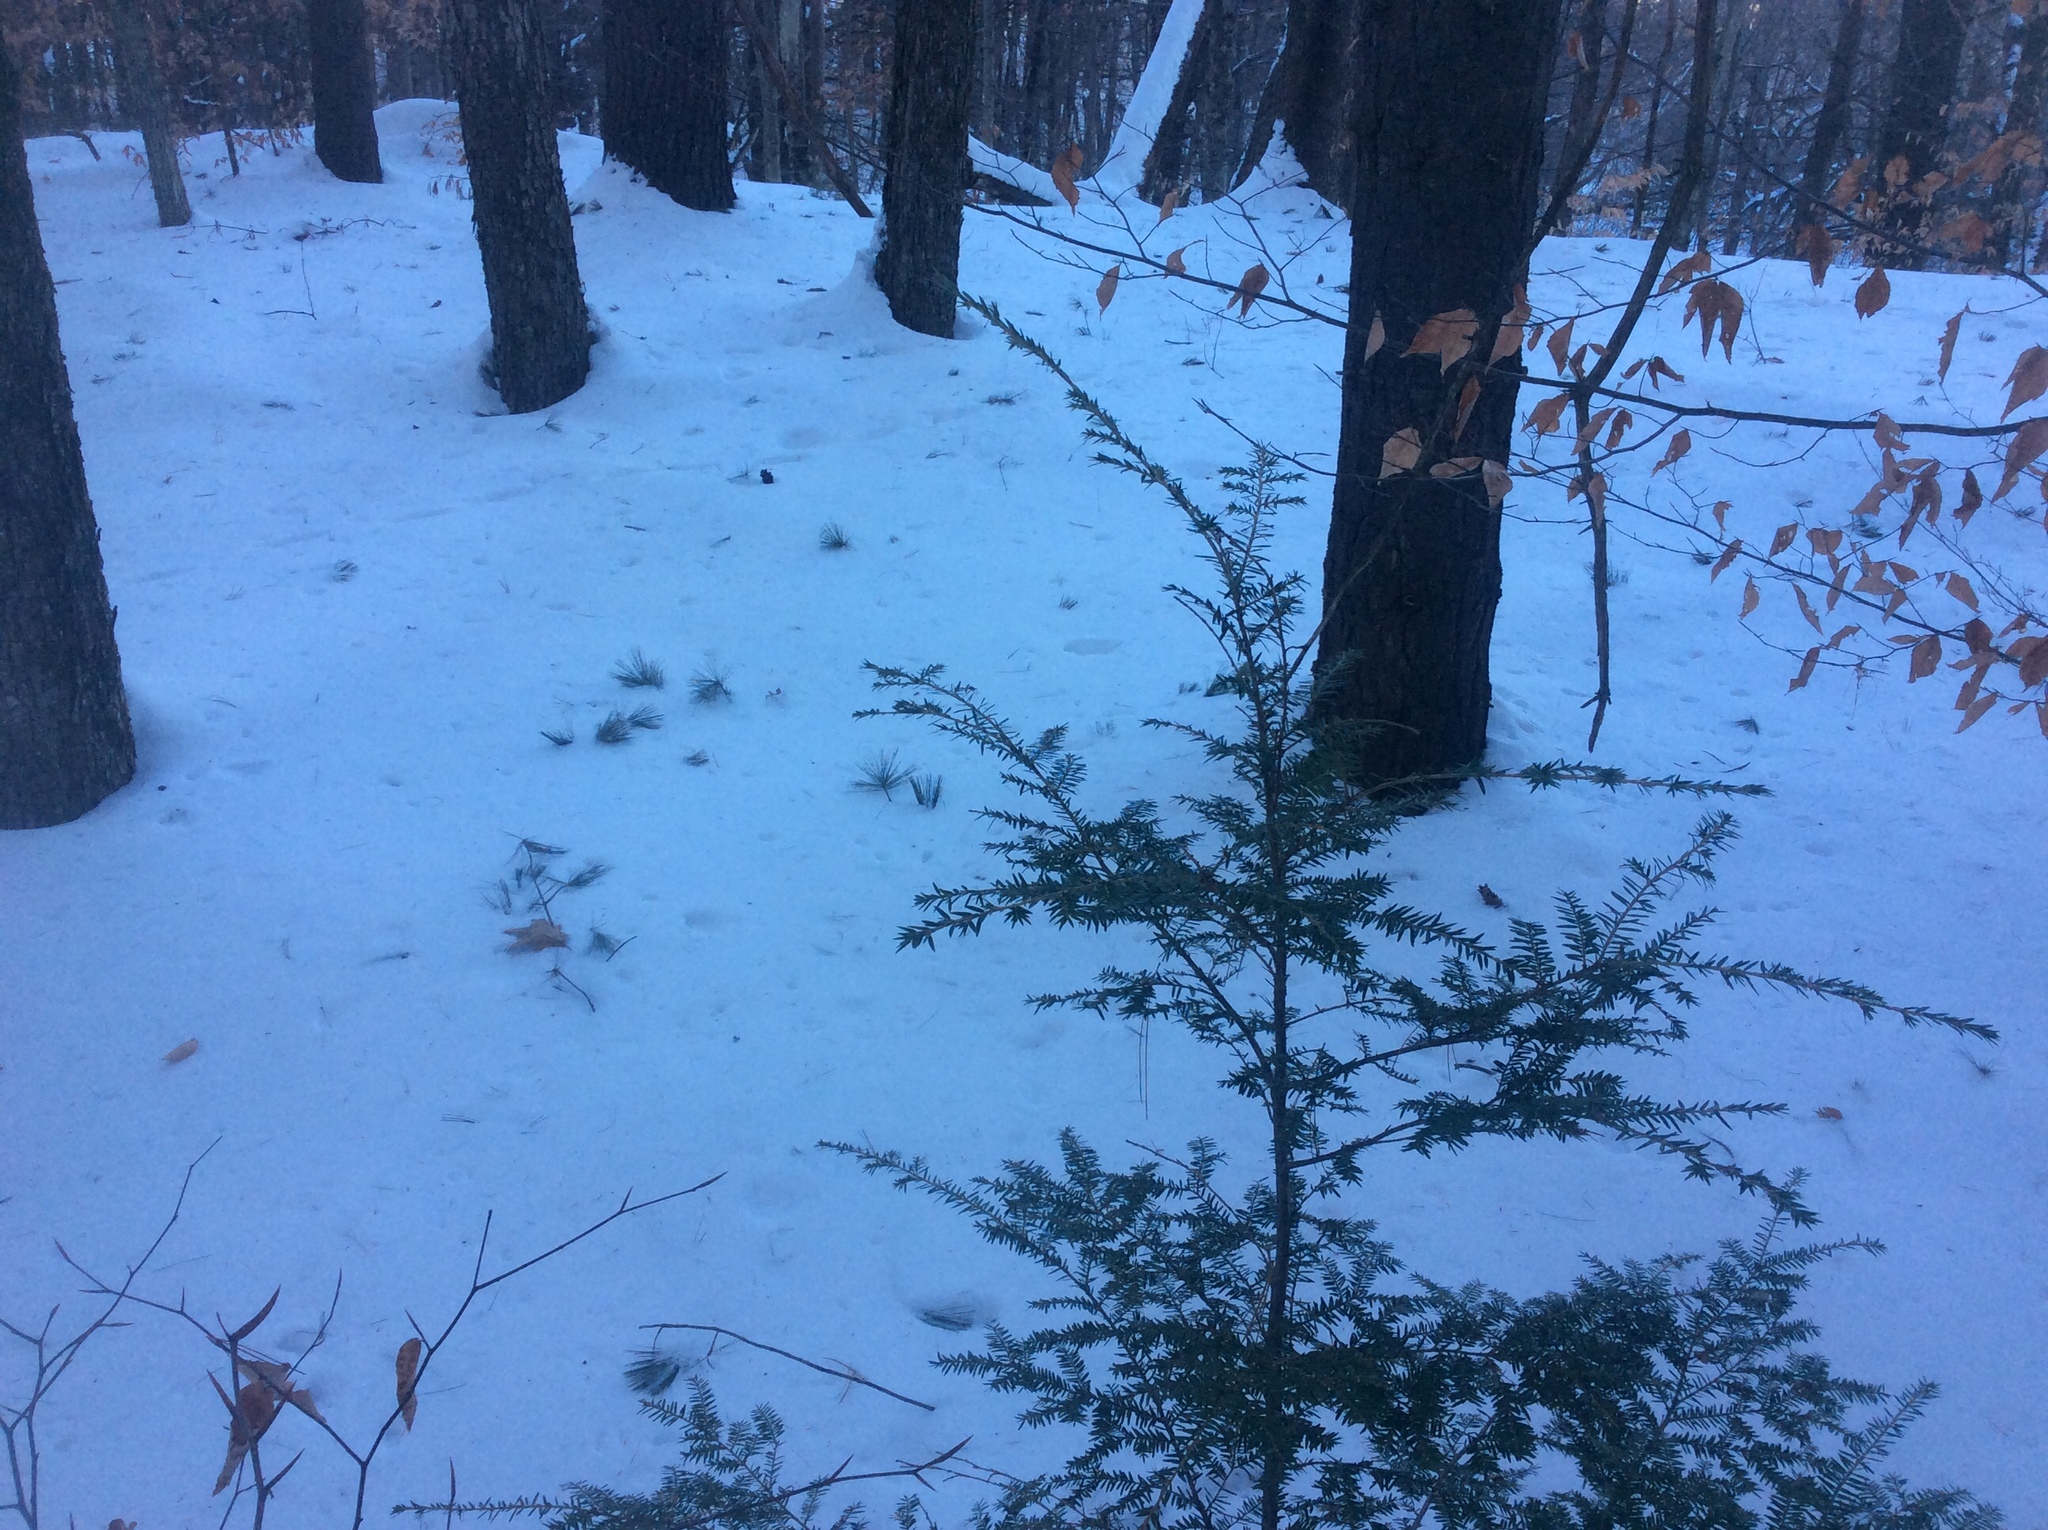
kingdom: Plantae
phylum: Tracheophyta
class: Pinopsida
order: Pinales
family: Pinaceae
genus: Tsuga
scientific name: Tsuga canadensis
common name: Eastern hemlock
